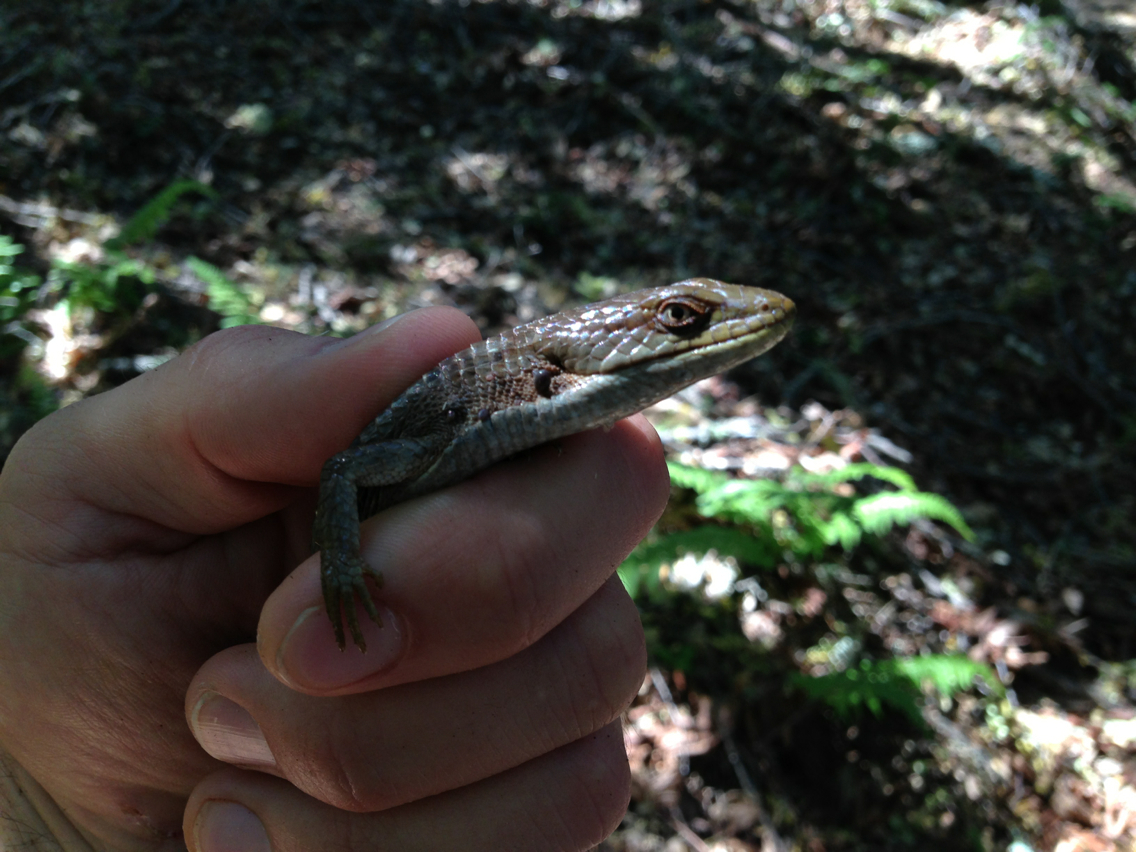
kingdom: Animalia
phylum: Chordata
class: Squamata
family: Anguidae
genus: Elgaria
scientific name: Elgaria multicarinata
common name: Southern alligator lizard
